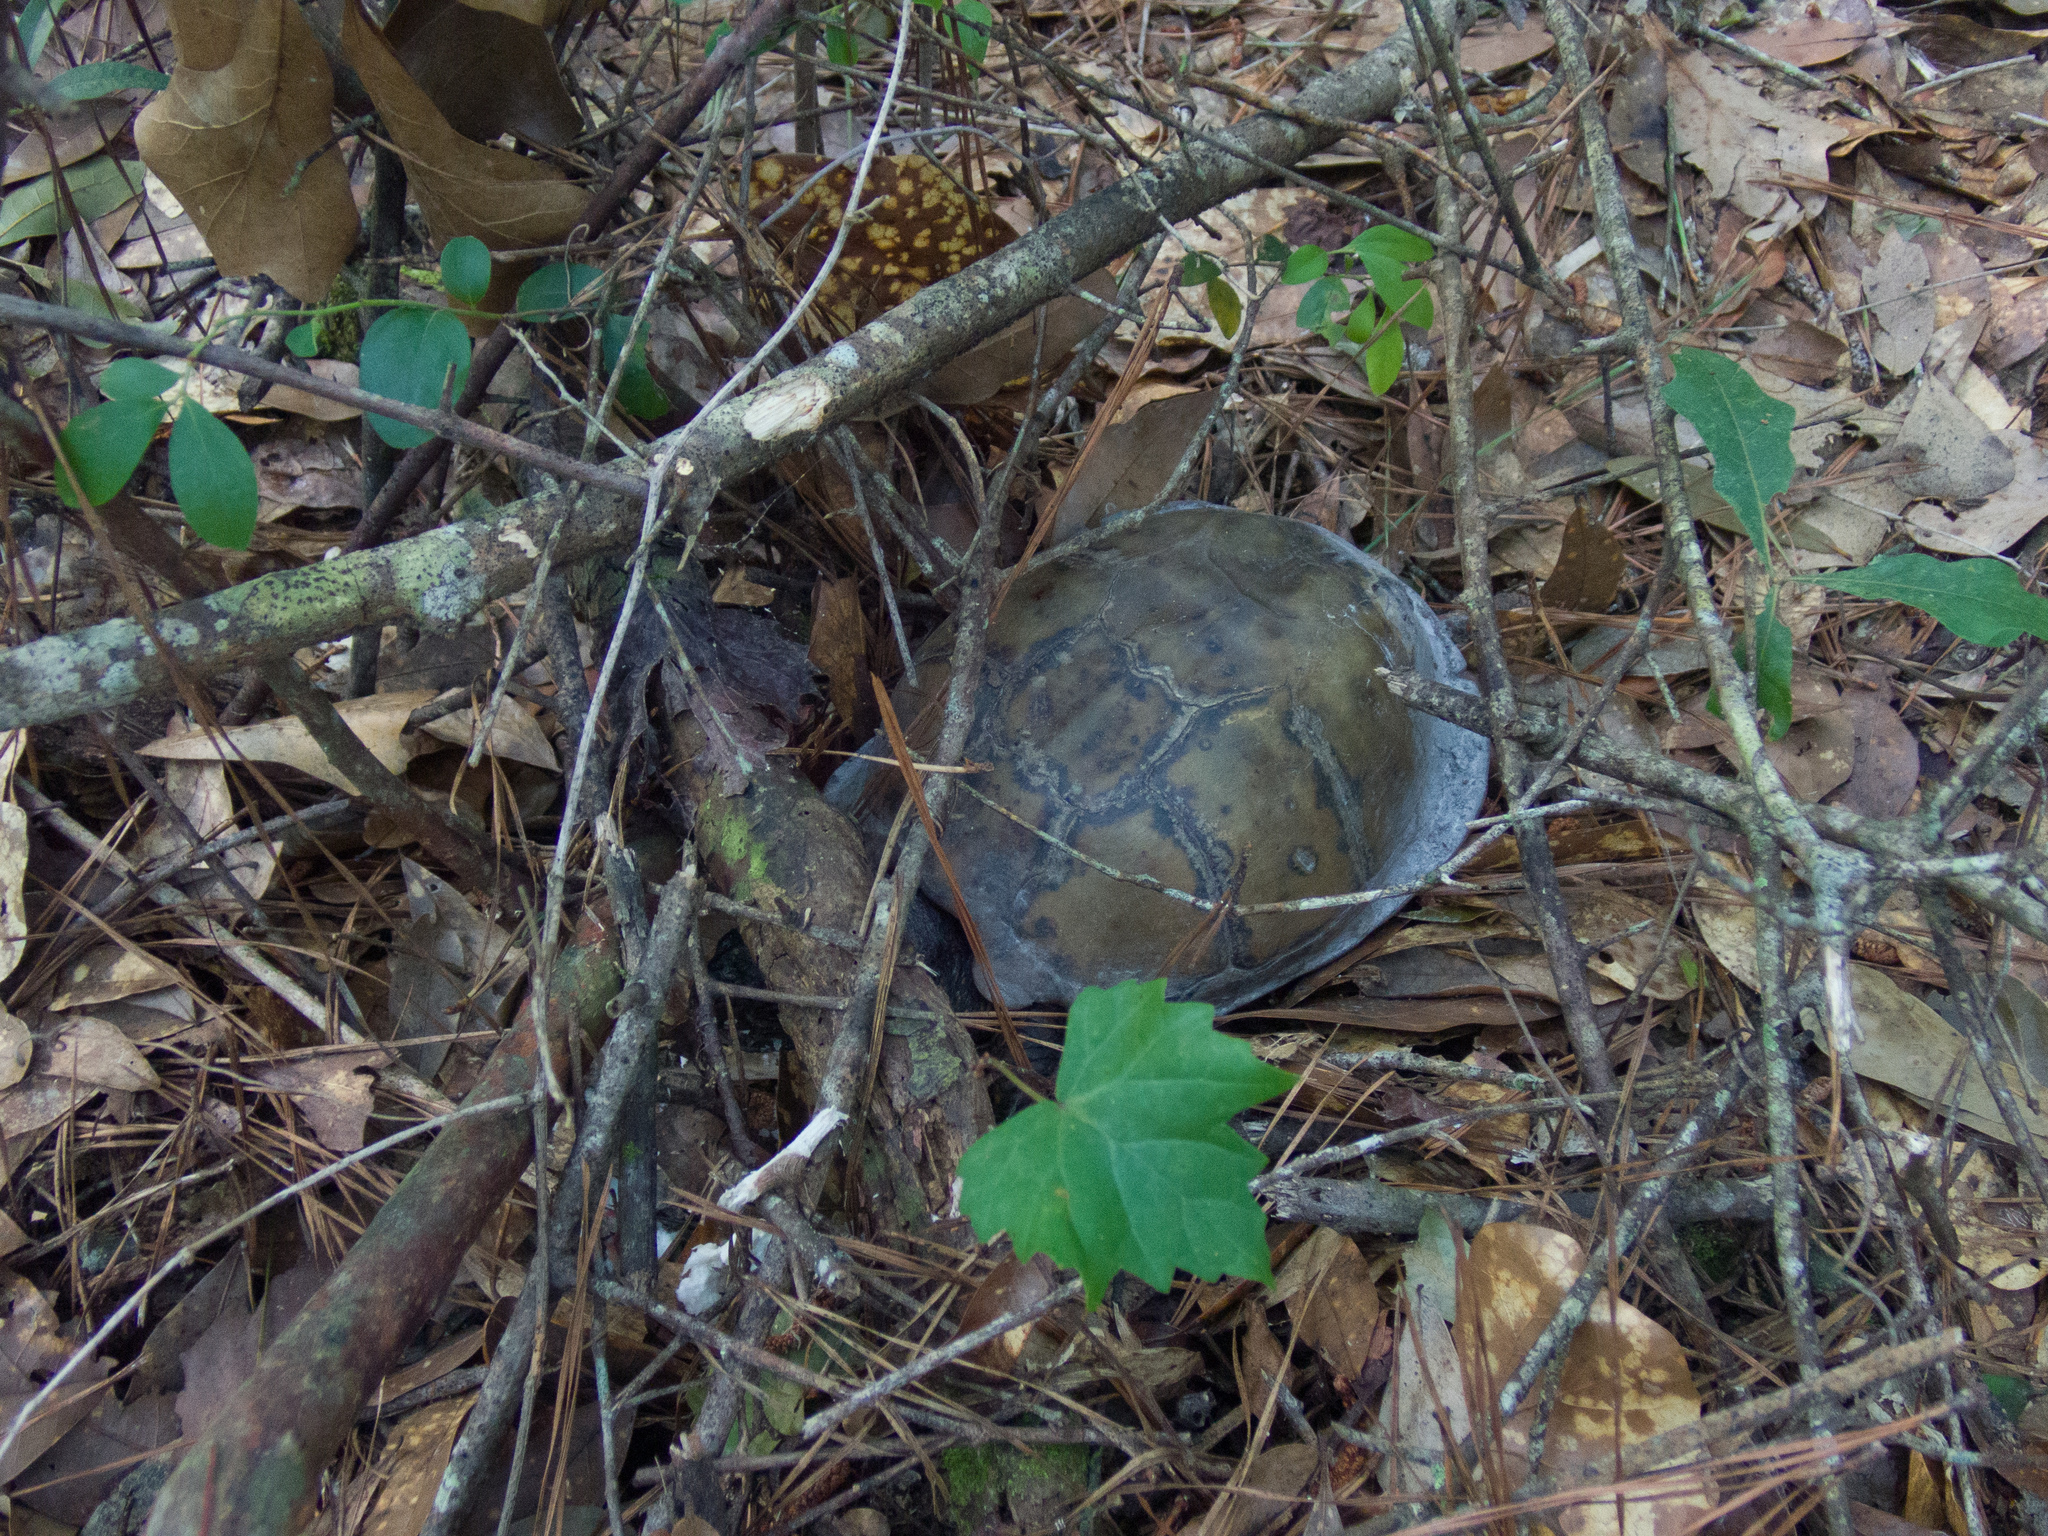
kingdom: Animalia
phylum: Chordata
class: Testudines
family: Emydidae
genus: Terrapene
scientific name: Terrapene carolina
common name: Common box turtle
